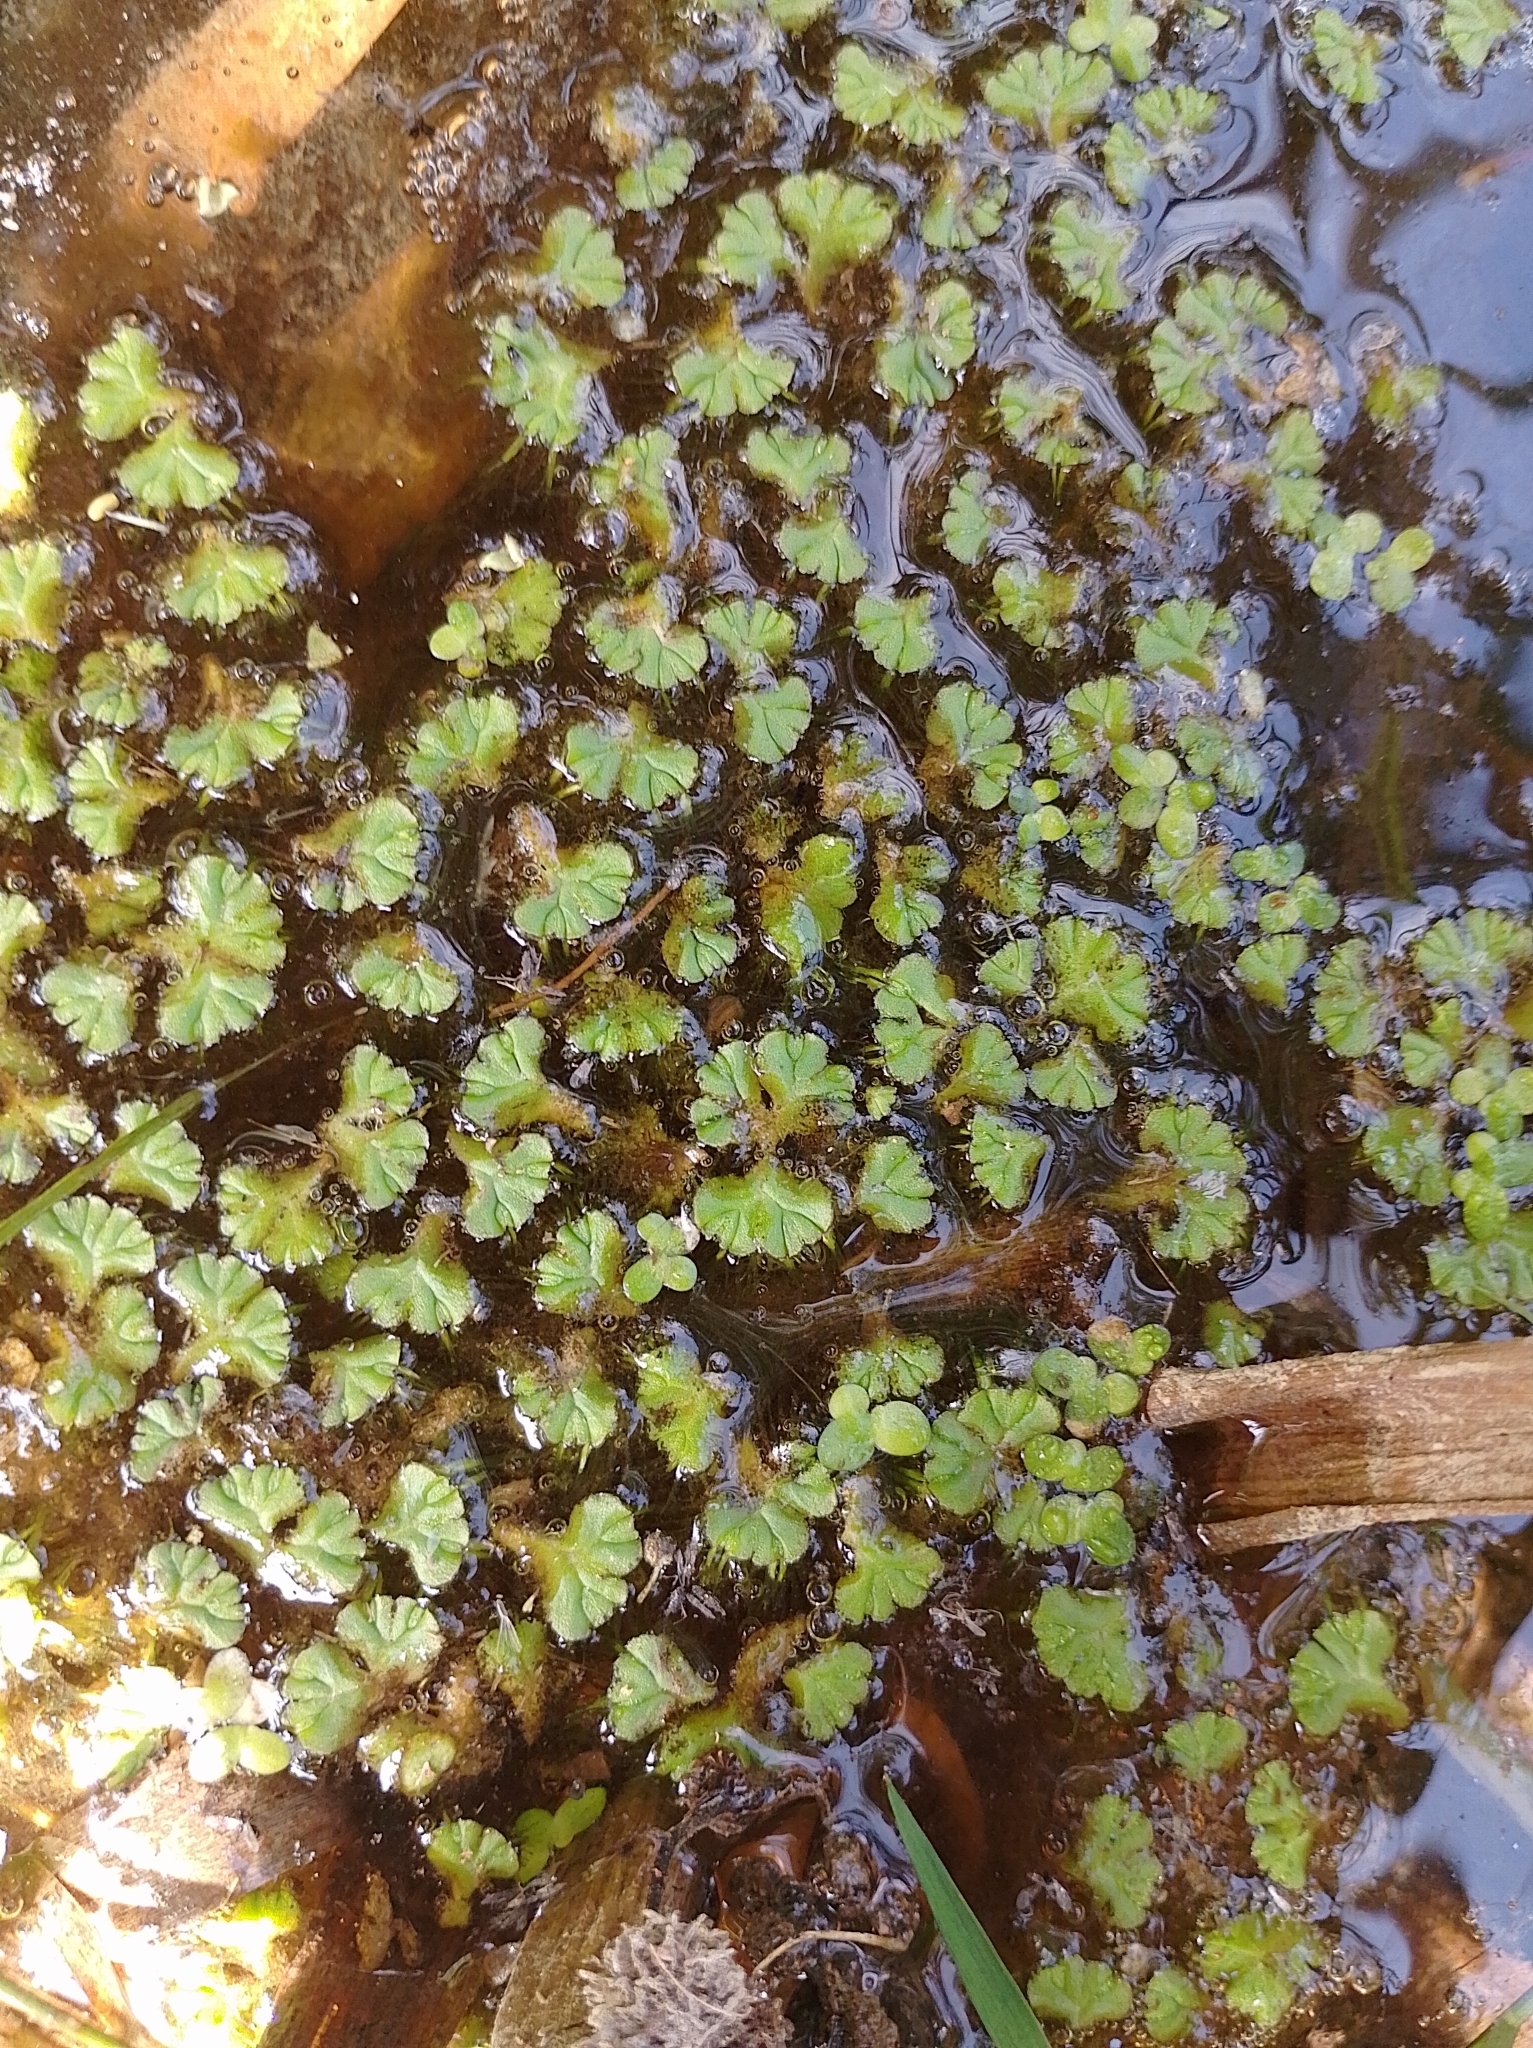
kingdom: Plantae
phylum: Marchantiophyta
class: Marchantiopsida
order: Marchantiales
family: Ricciaceae
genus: Ricciocarpos
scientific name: Ricciocarpos natans
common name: Purple-fringed liverwort
